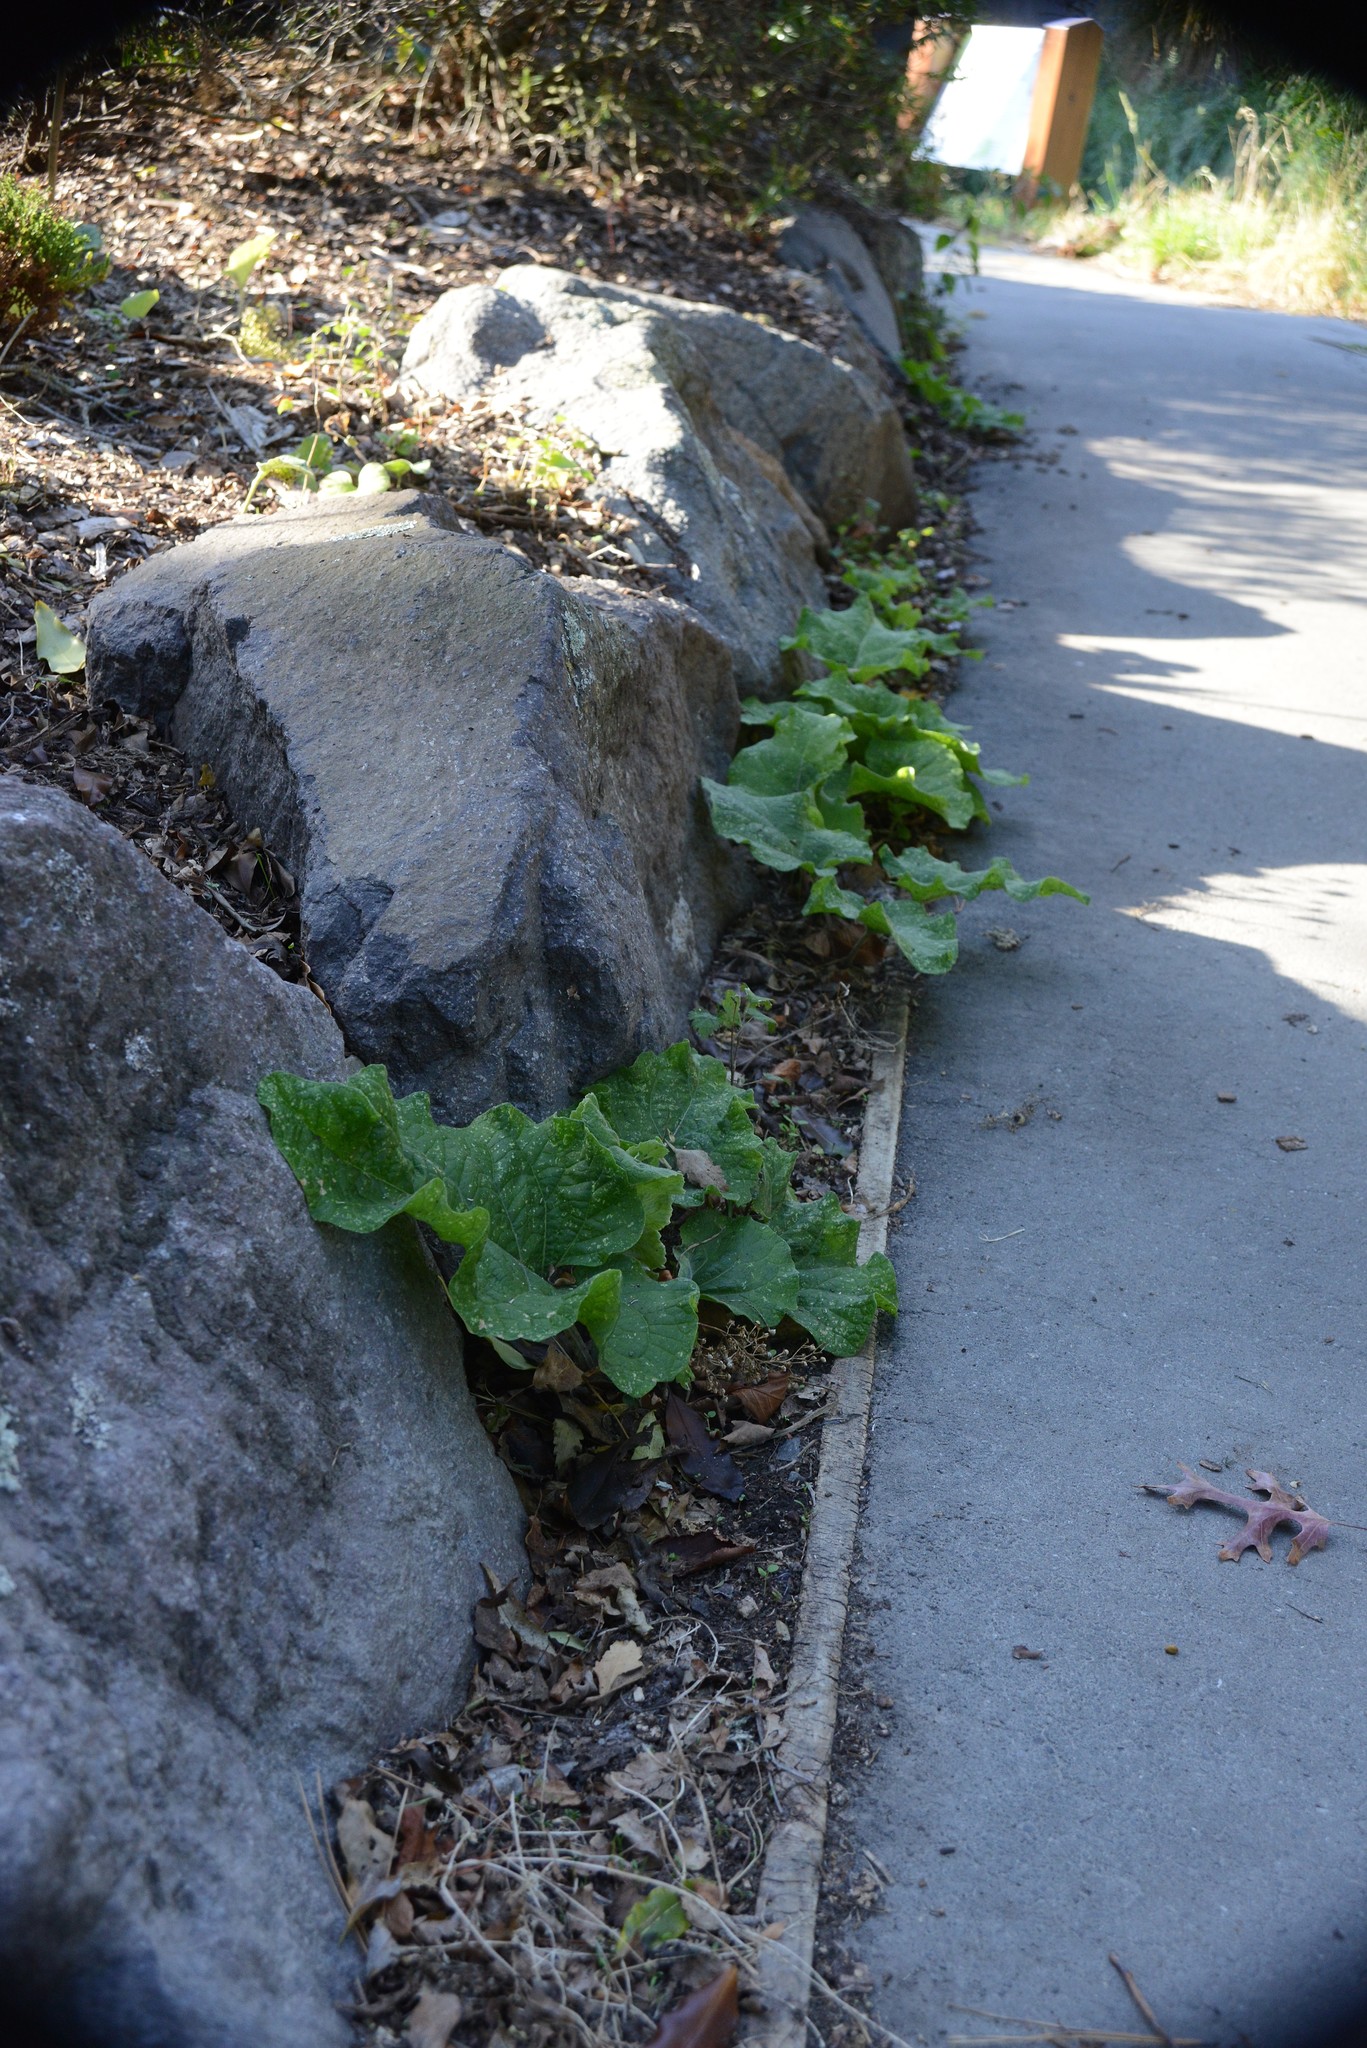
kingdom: Plantae
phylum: Tracheophyta
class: Magnoliopsida
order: Asterales
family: Asteraceae
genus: Arctium
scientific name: Arctium minus
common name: Lesser burdock
